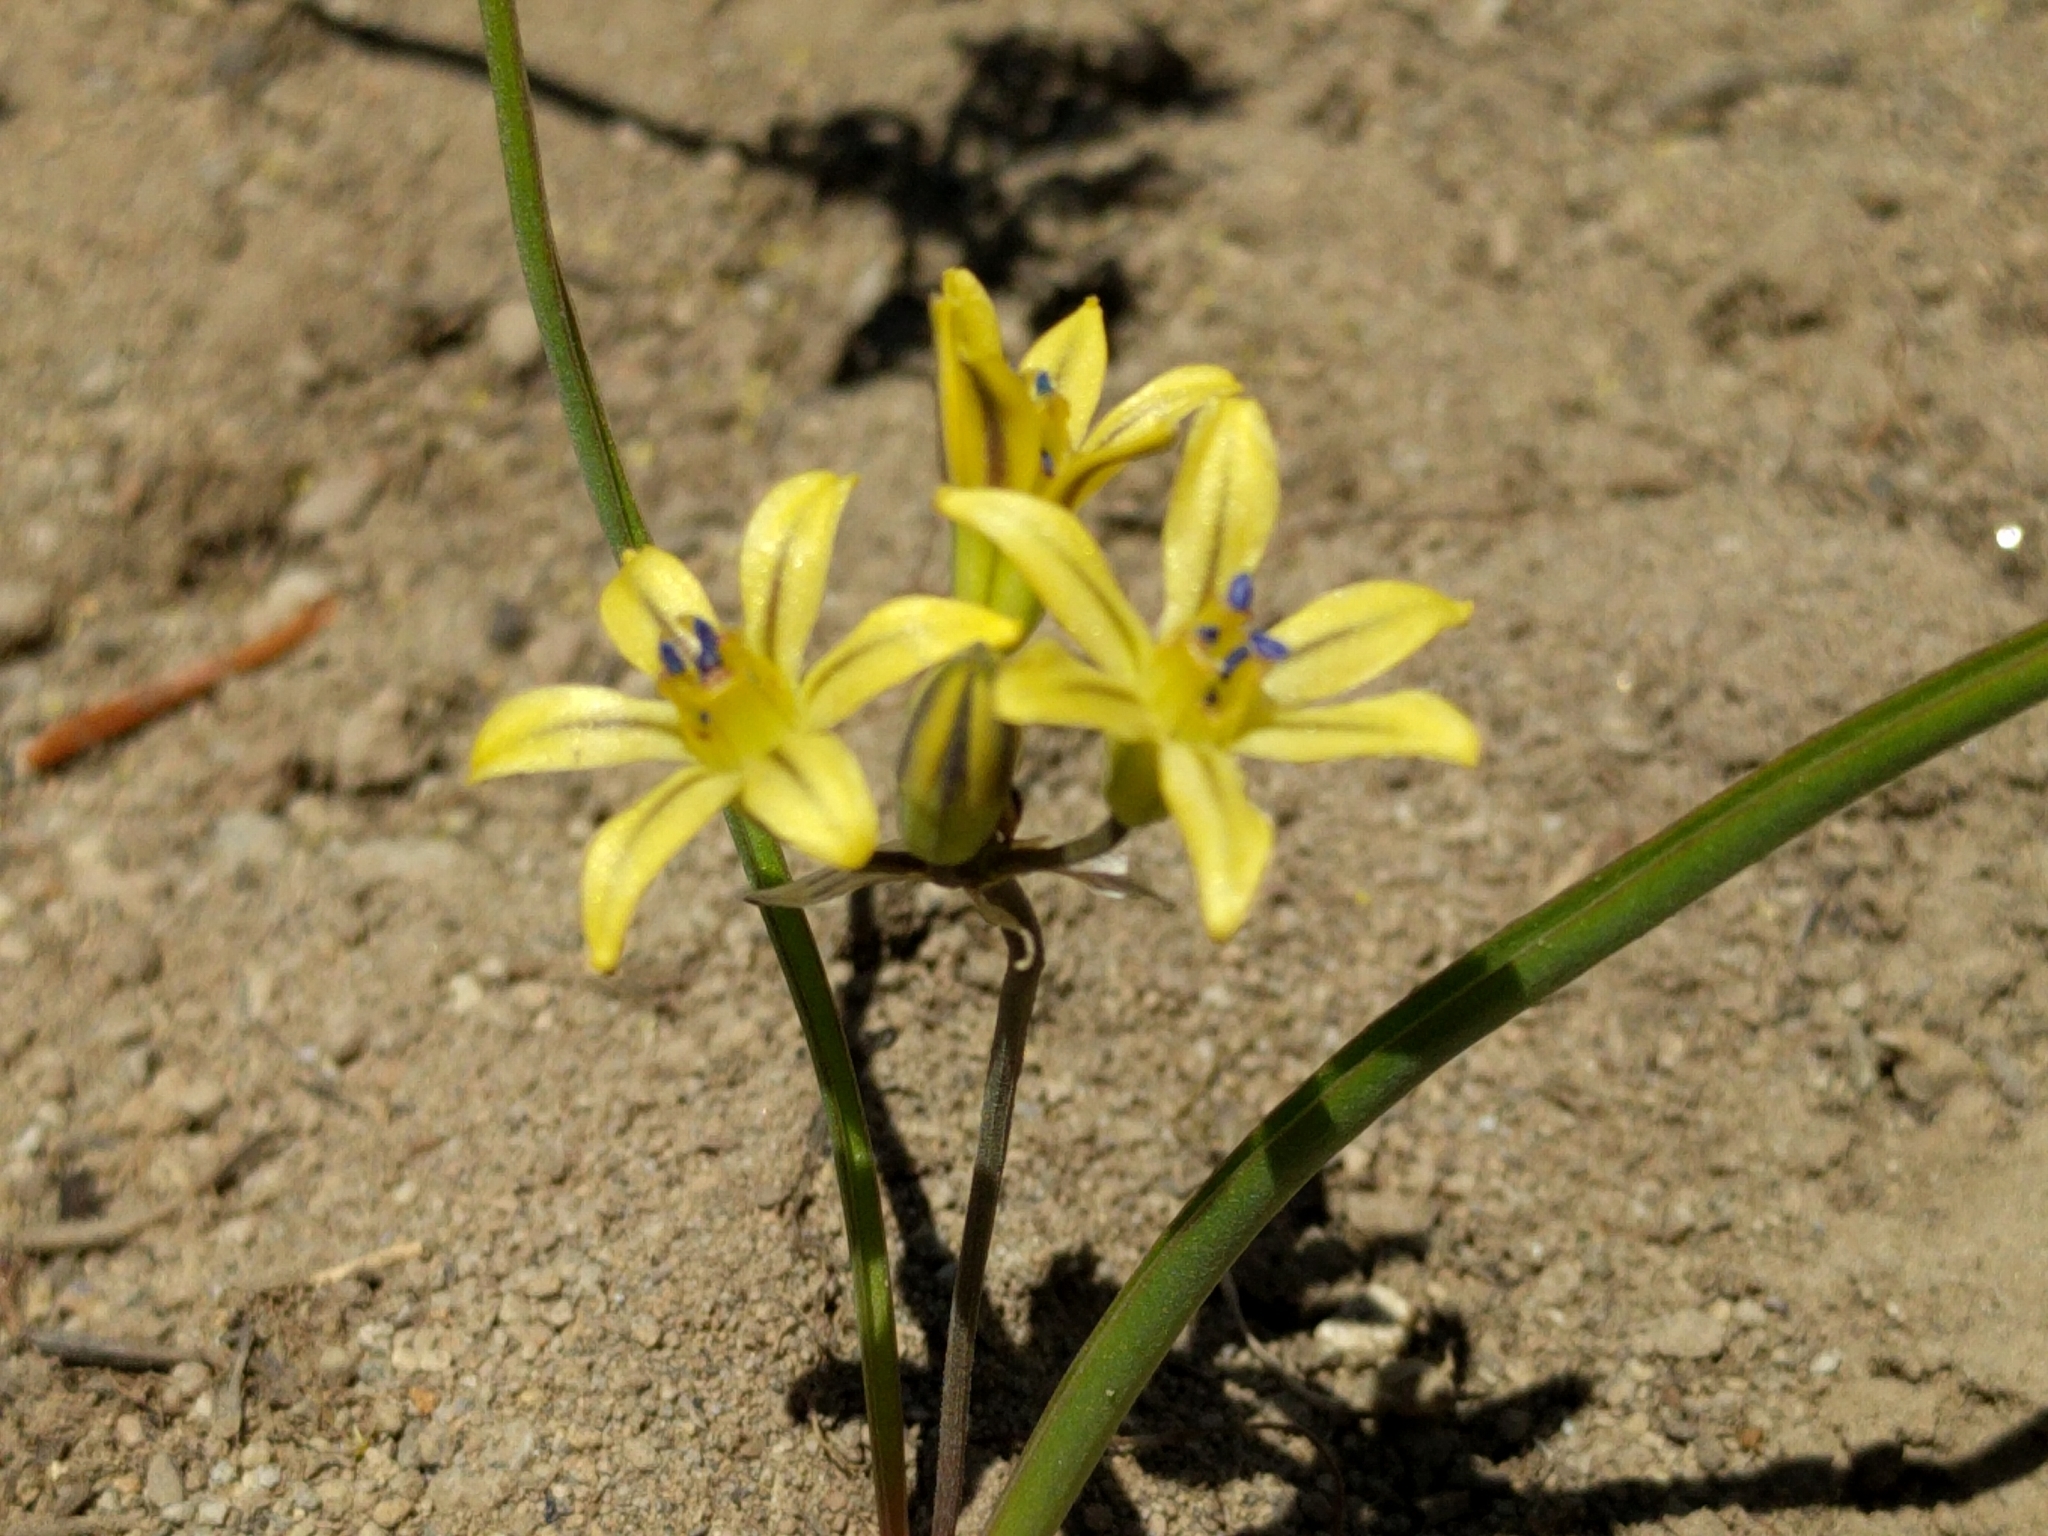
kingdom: Plantae
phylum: Tracheophyta
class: Liliopsida
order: Asparagales
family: Asparagaceae
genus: Triteleia
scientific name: Triteleia ixioides
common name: Yellow-brodiaea
